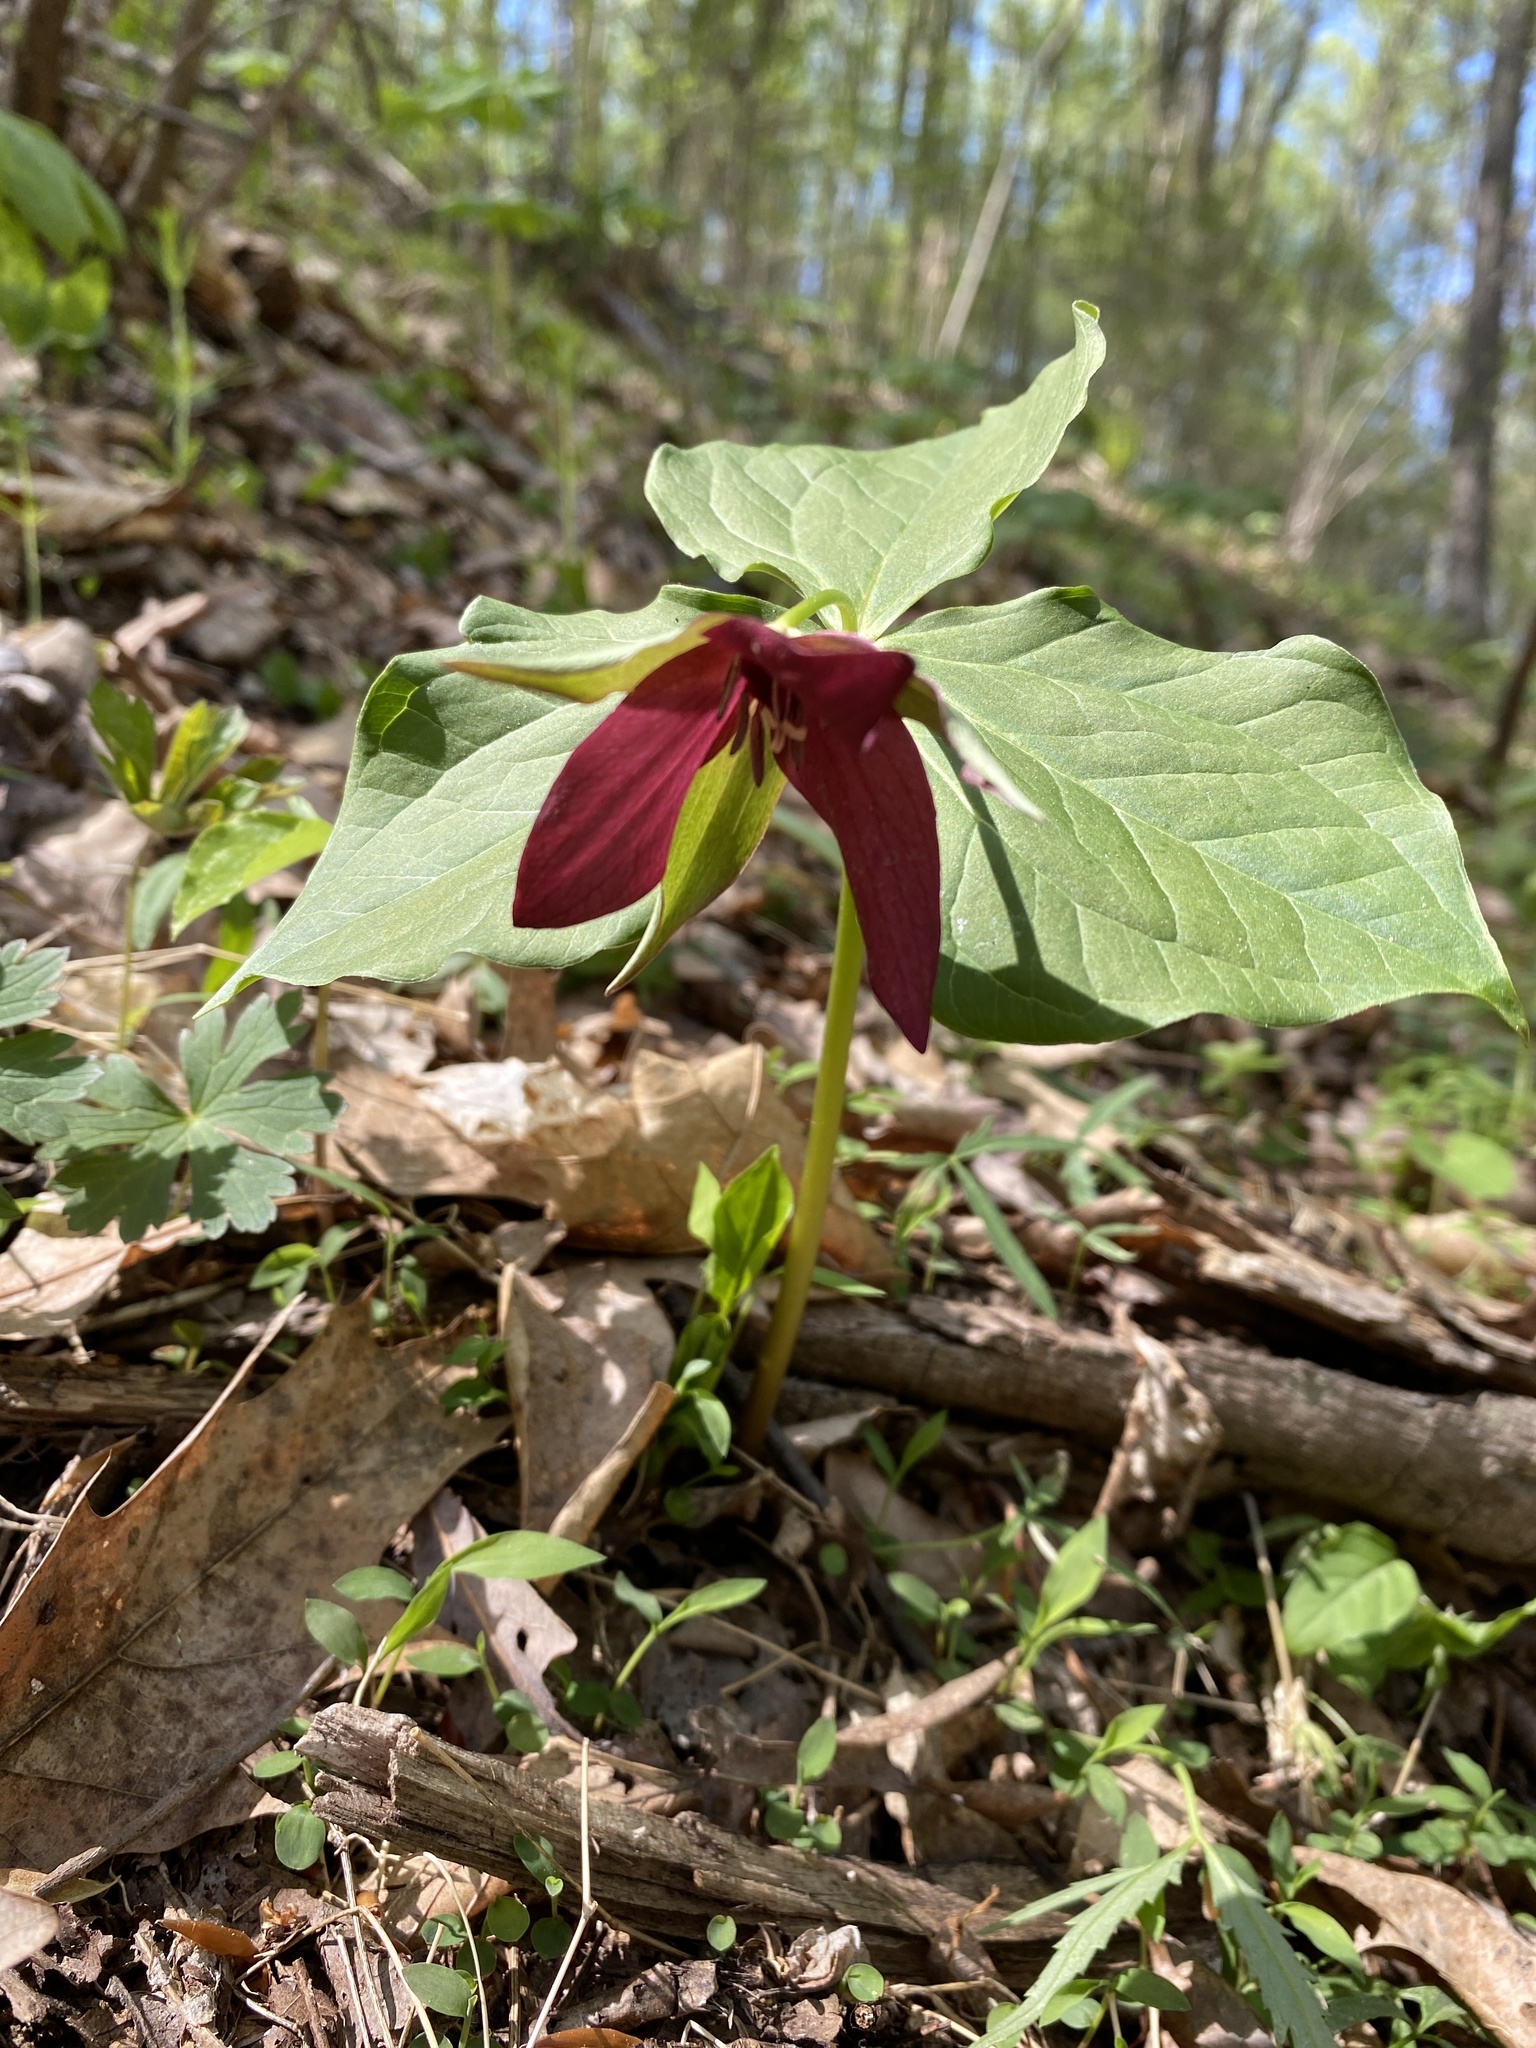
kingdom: Plantae
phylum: Tracheophyta
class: Liliopsida
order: Liliales
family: Melanthiaceae
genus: Trillium
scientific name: Trillium erectum
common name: Purple trillium
